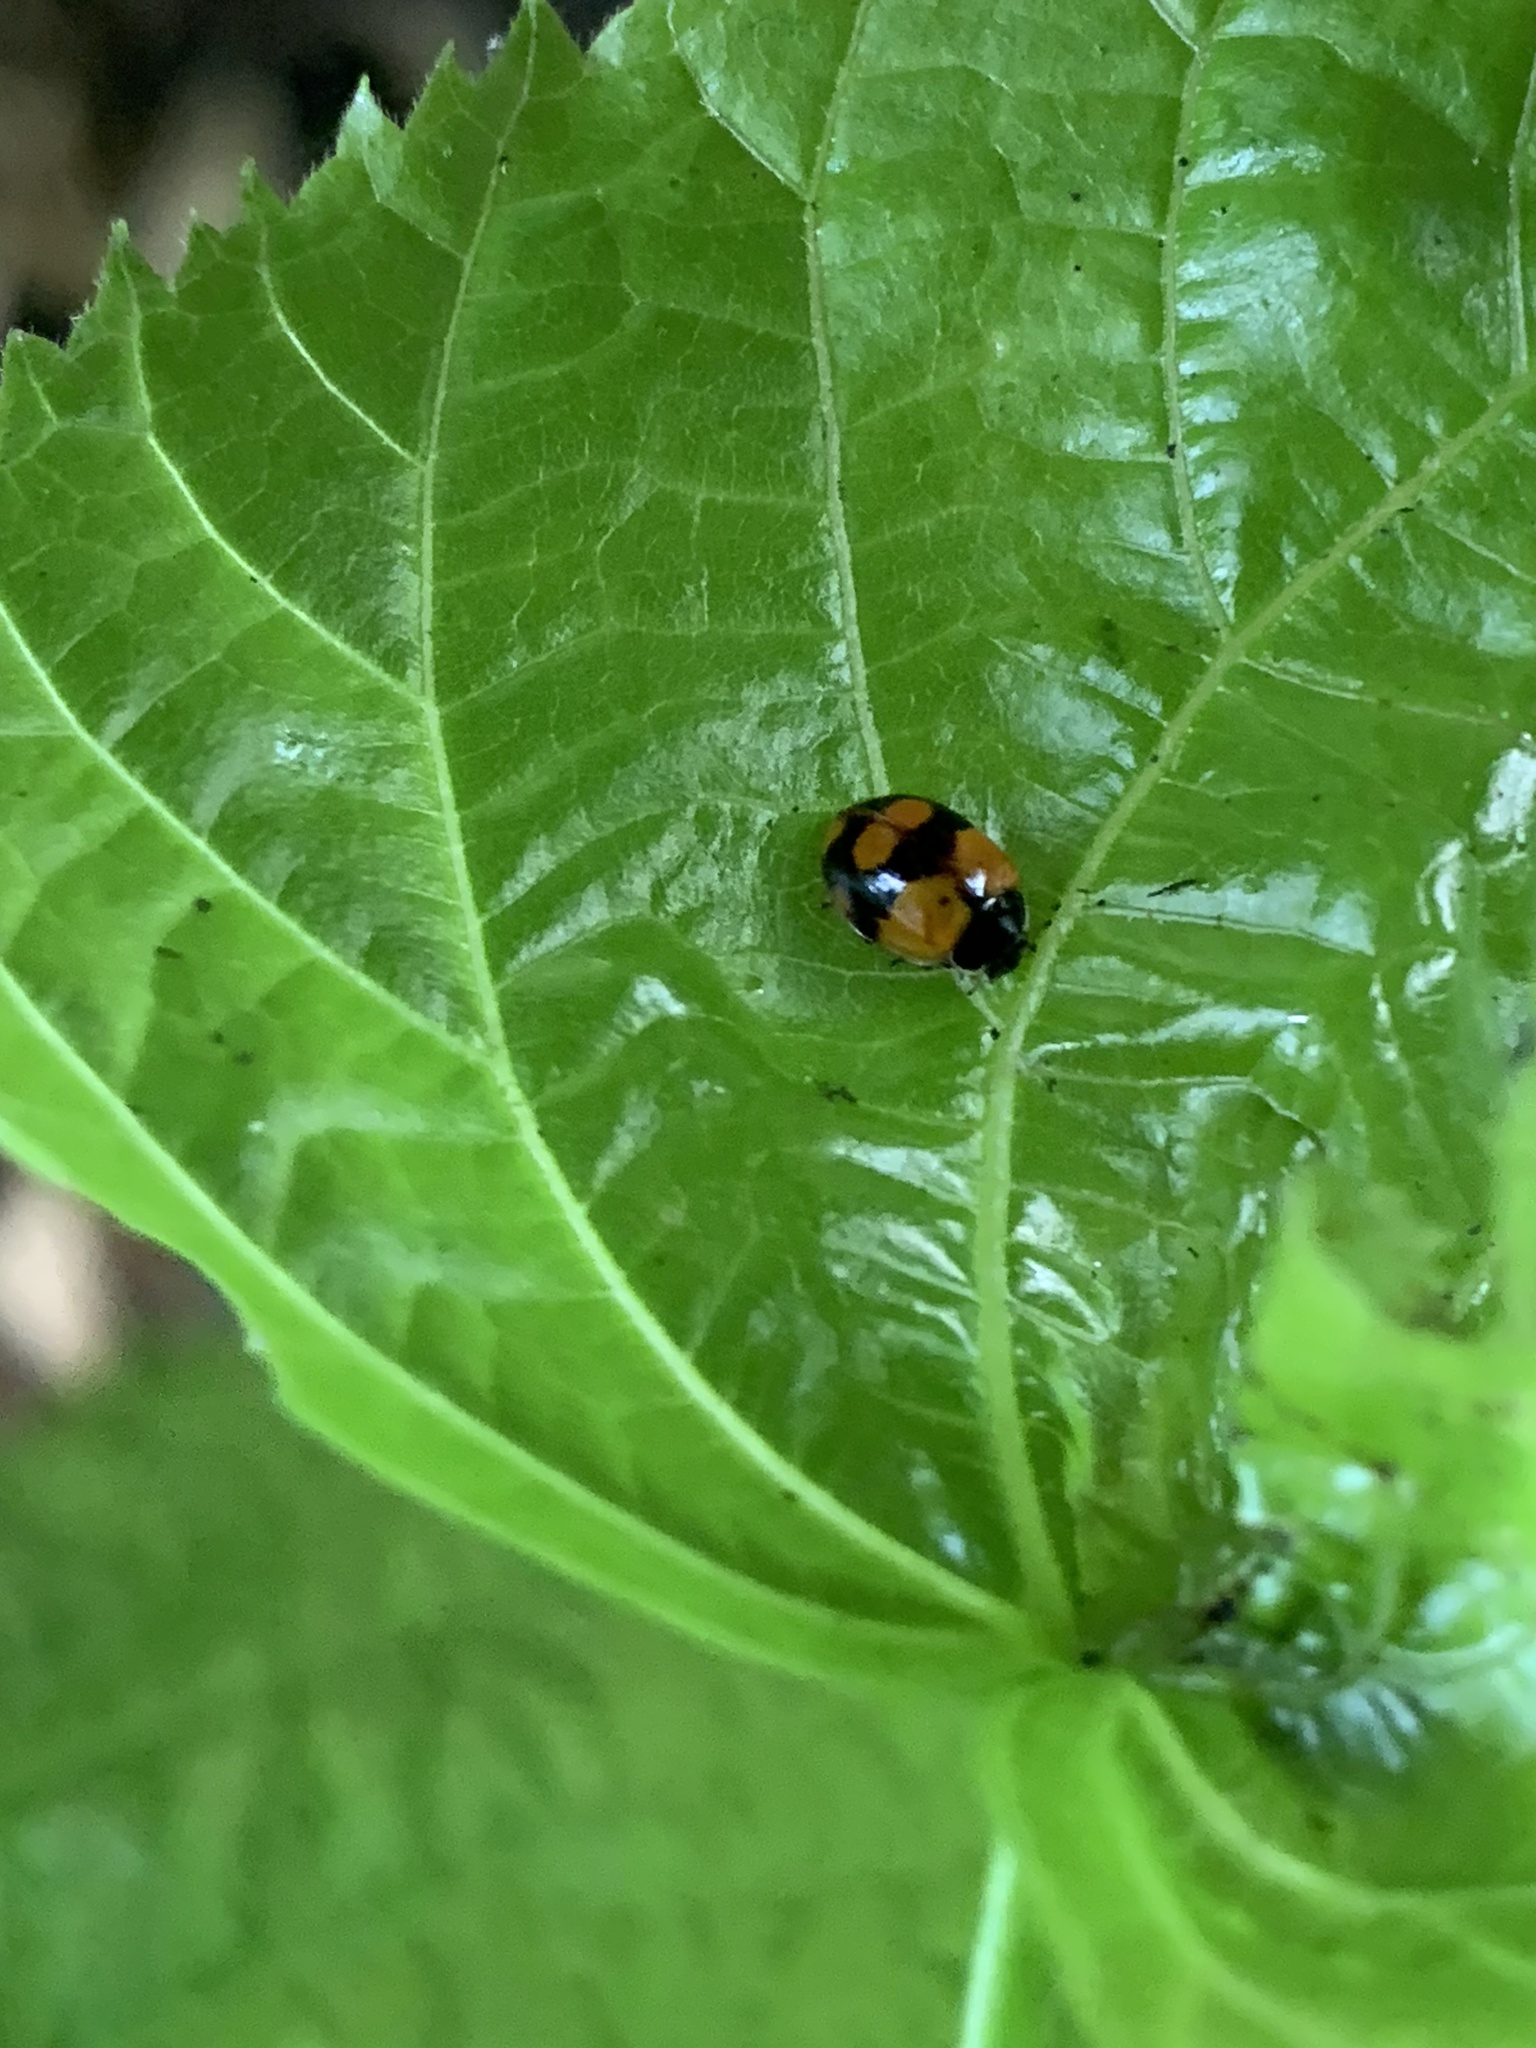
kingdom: Animalia
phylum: Arthropoda
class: Insecta
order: Coleoptera
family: Coccinellidae
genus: Adalia
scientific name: Adalia bipunctata
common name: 2-spot ladybird
